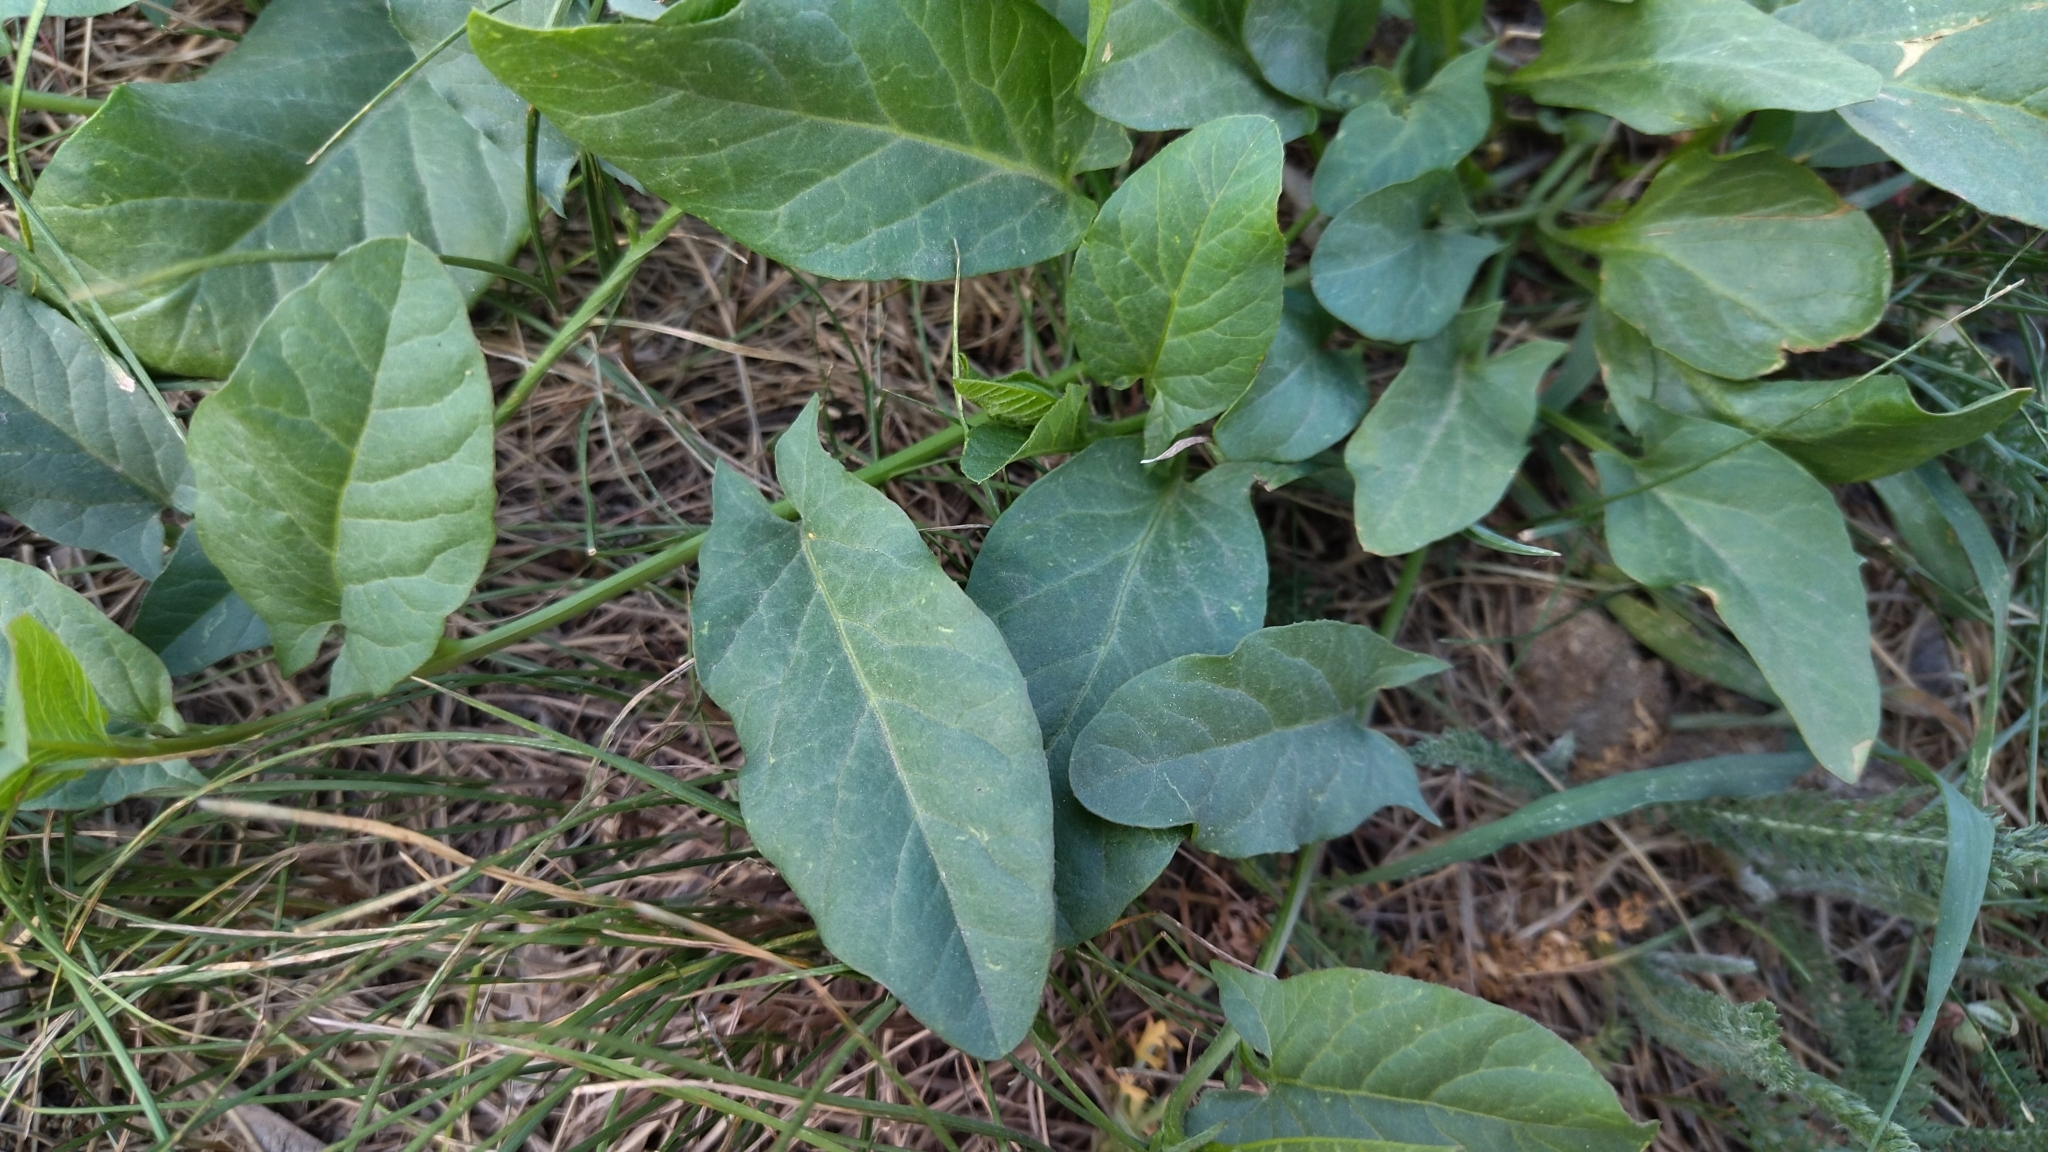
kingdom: Plantae
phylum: Tracheophyta
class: Magnoliopsida
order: Solanales
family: Convolvulaceae
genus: Convolvulus
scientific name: Convolvulus arvensis
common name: Field bindweed
